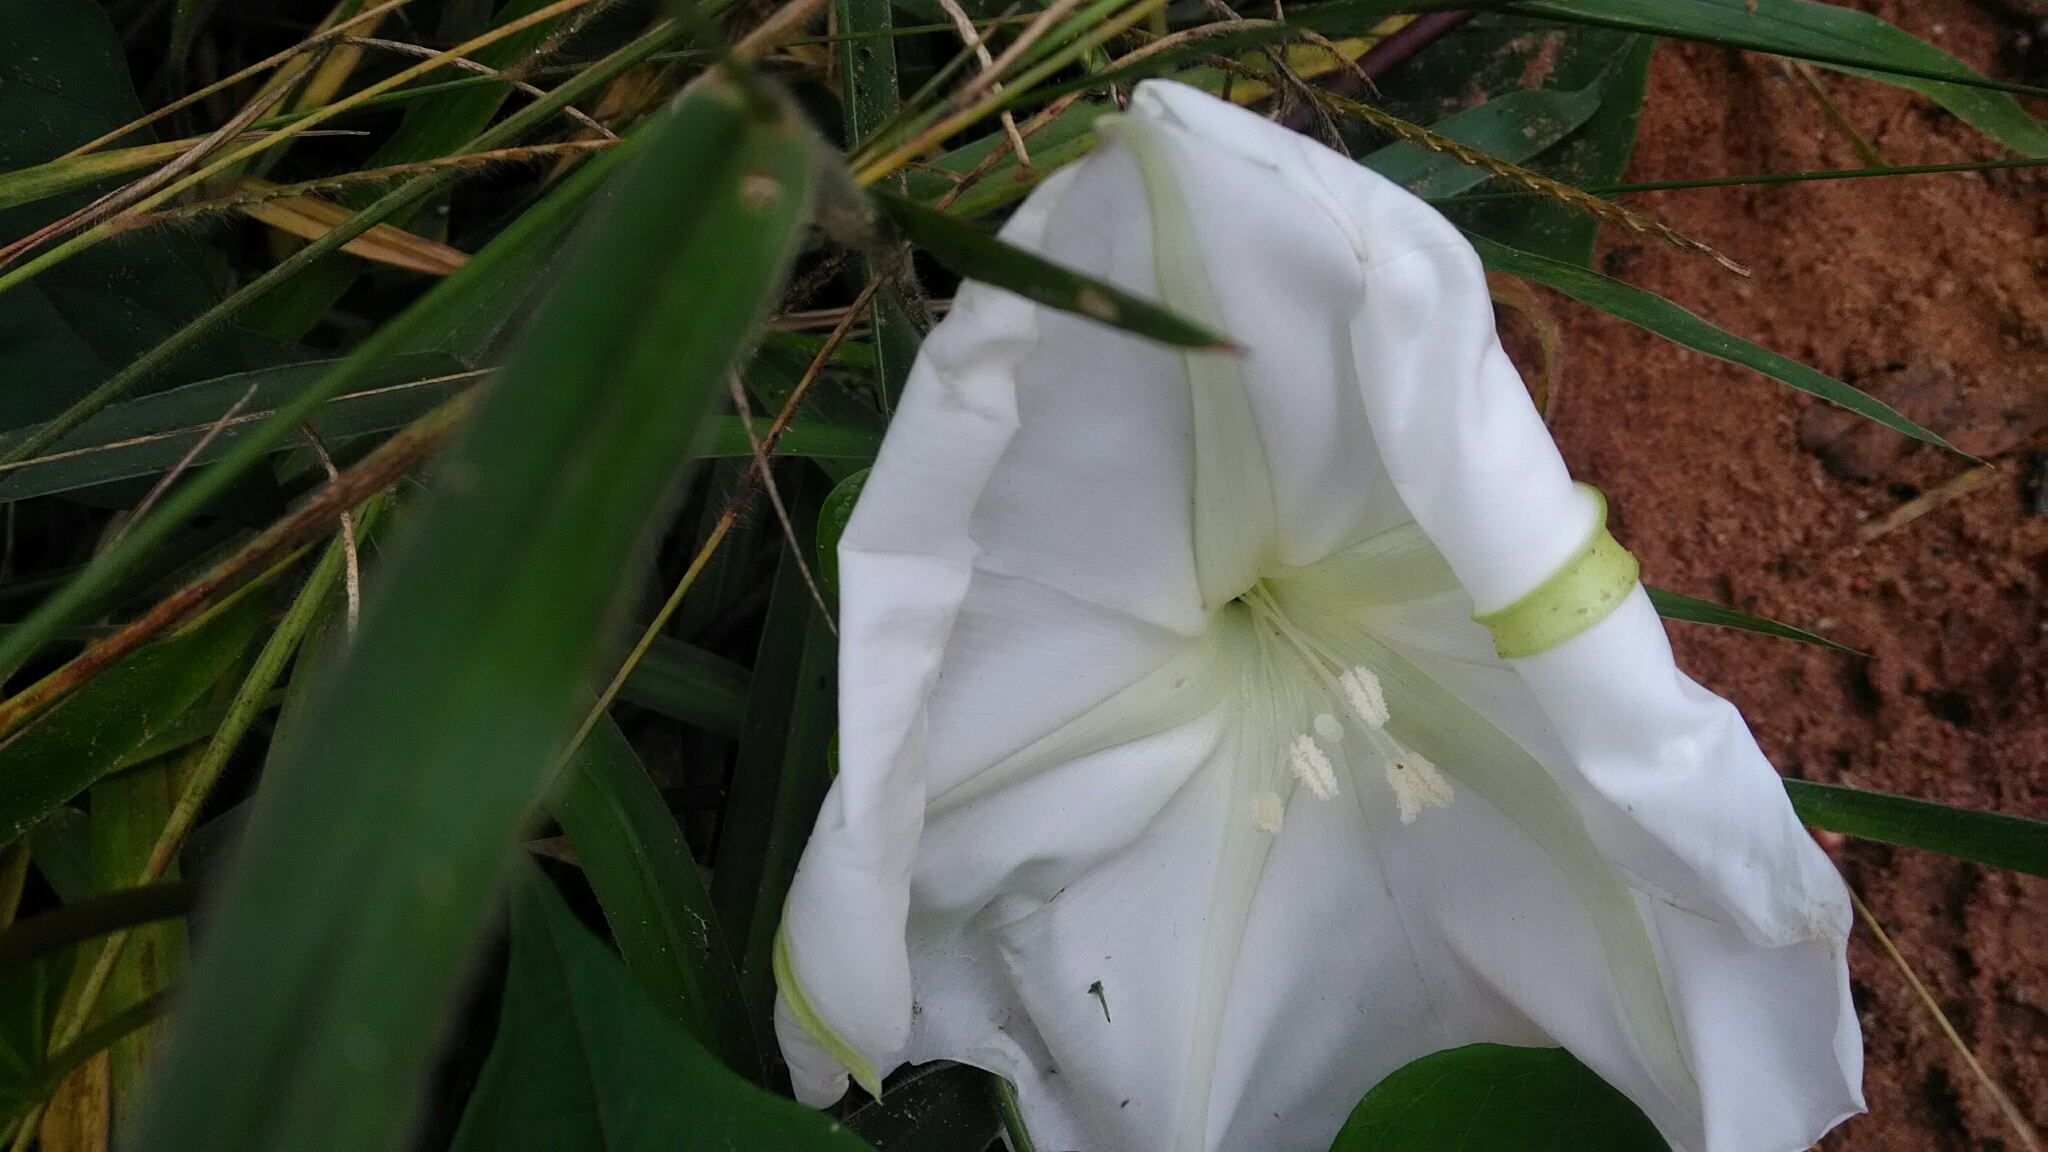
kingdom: Plantae
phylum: Tracheophyta
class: Magnoliopsida
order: Solanales
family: Convolvulaceae
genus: Ipomoea
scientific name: Ipomoea alba
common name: Moonflower
